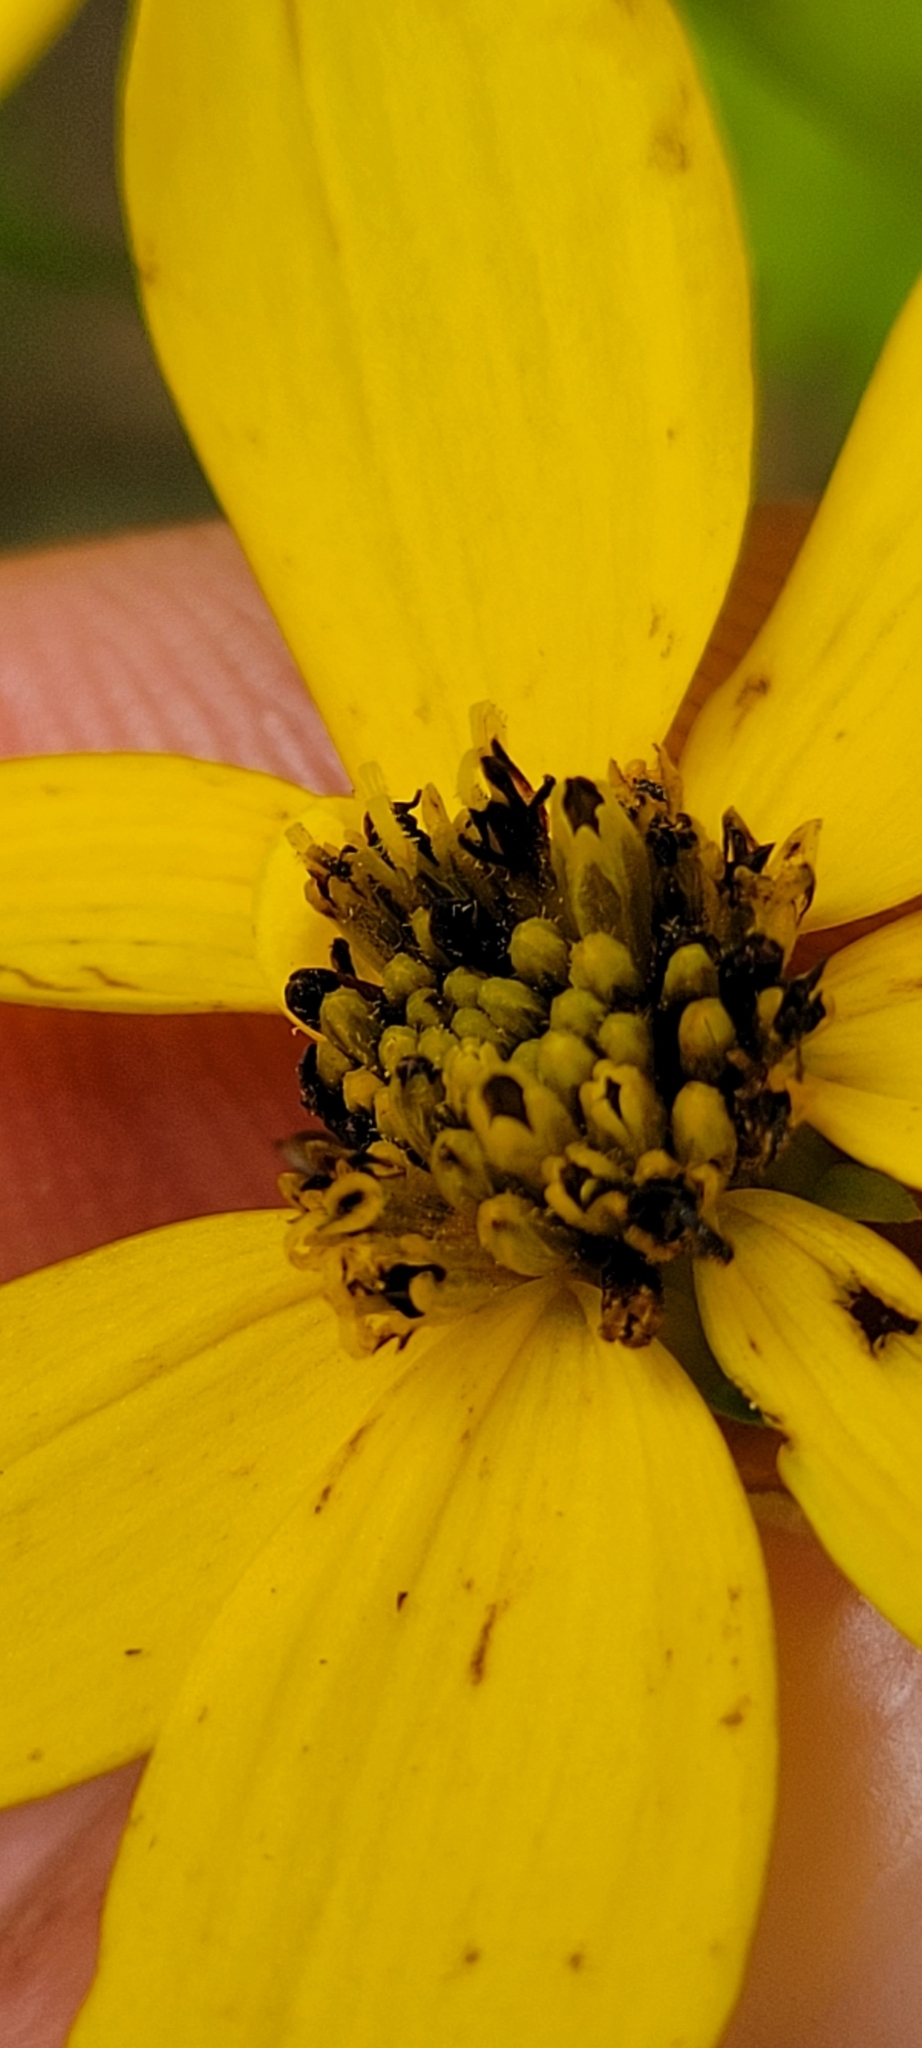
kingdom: Plantae
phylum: Tracheophyta
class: Magnoliopsida
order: Asterales
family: Asteraceae
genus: Coreopsis
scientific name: Coreopsis major
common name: Forest tickseed
